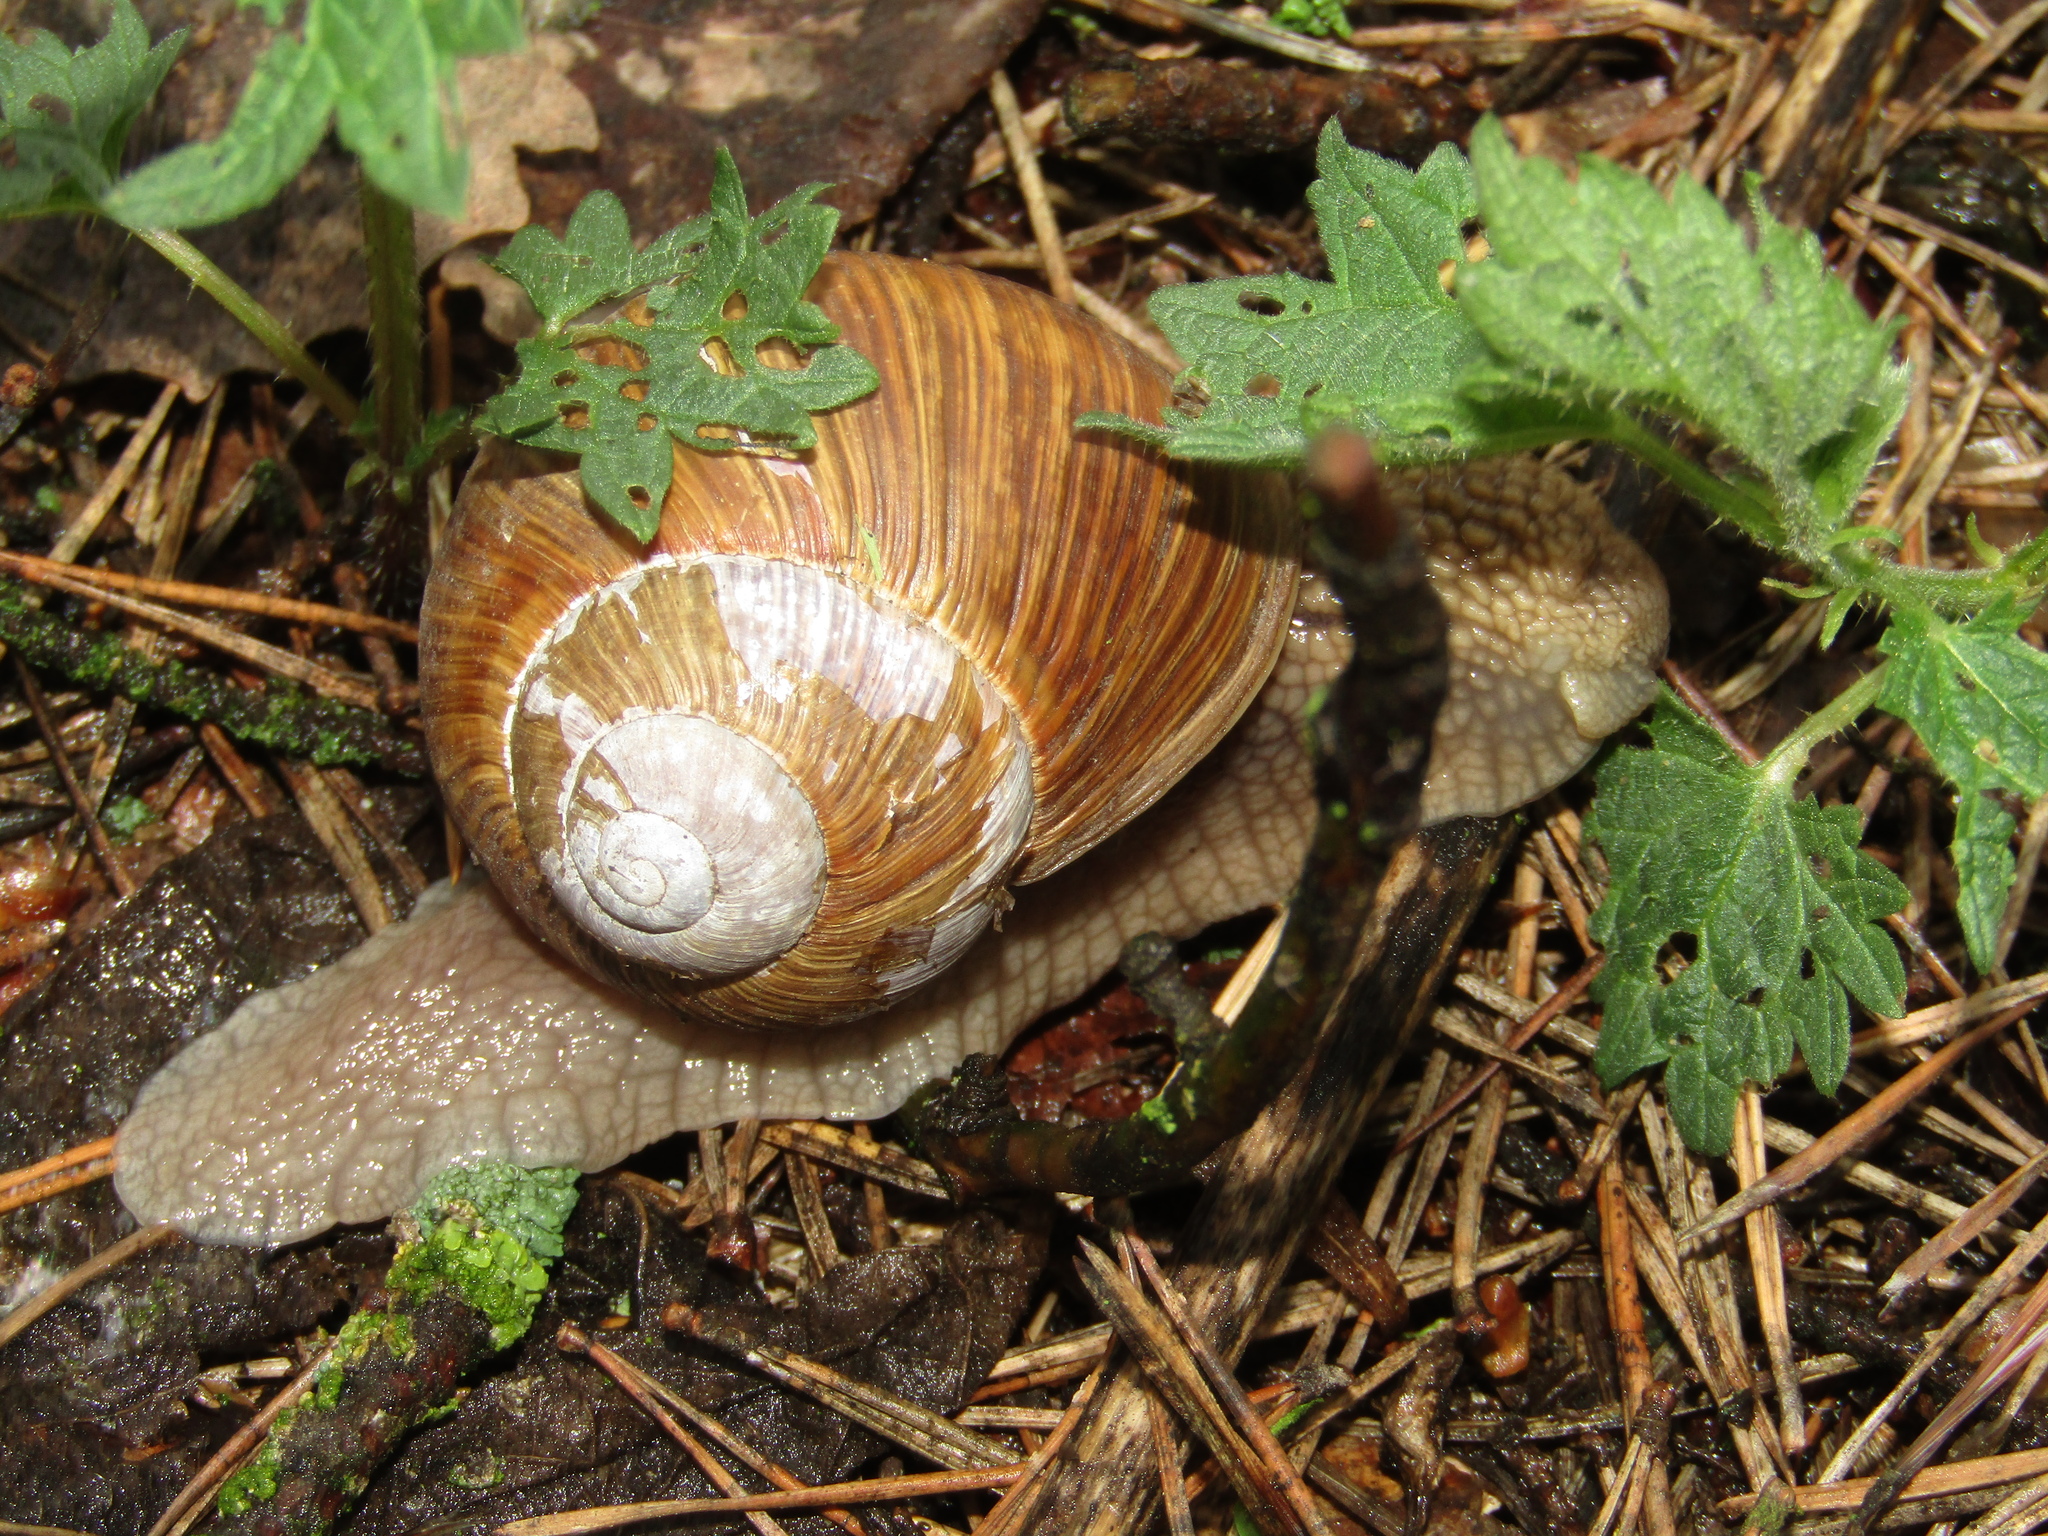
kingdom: Animalia
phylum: Mollusca
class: Gastropoda
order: Stylommatophora
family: Helicidae
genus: Helix
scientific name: Helix pomatia
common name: Roman snail
